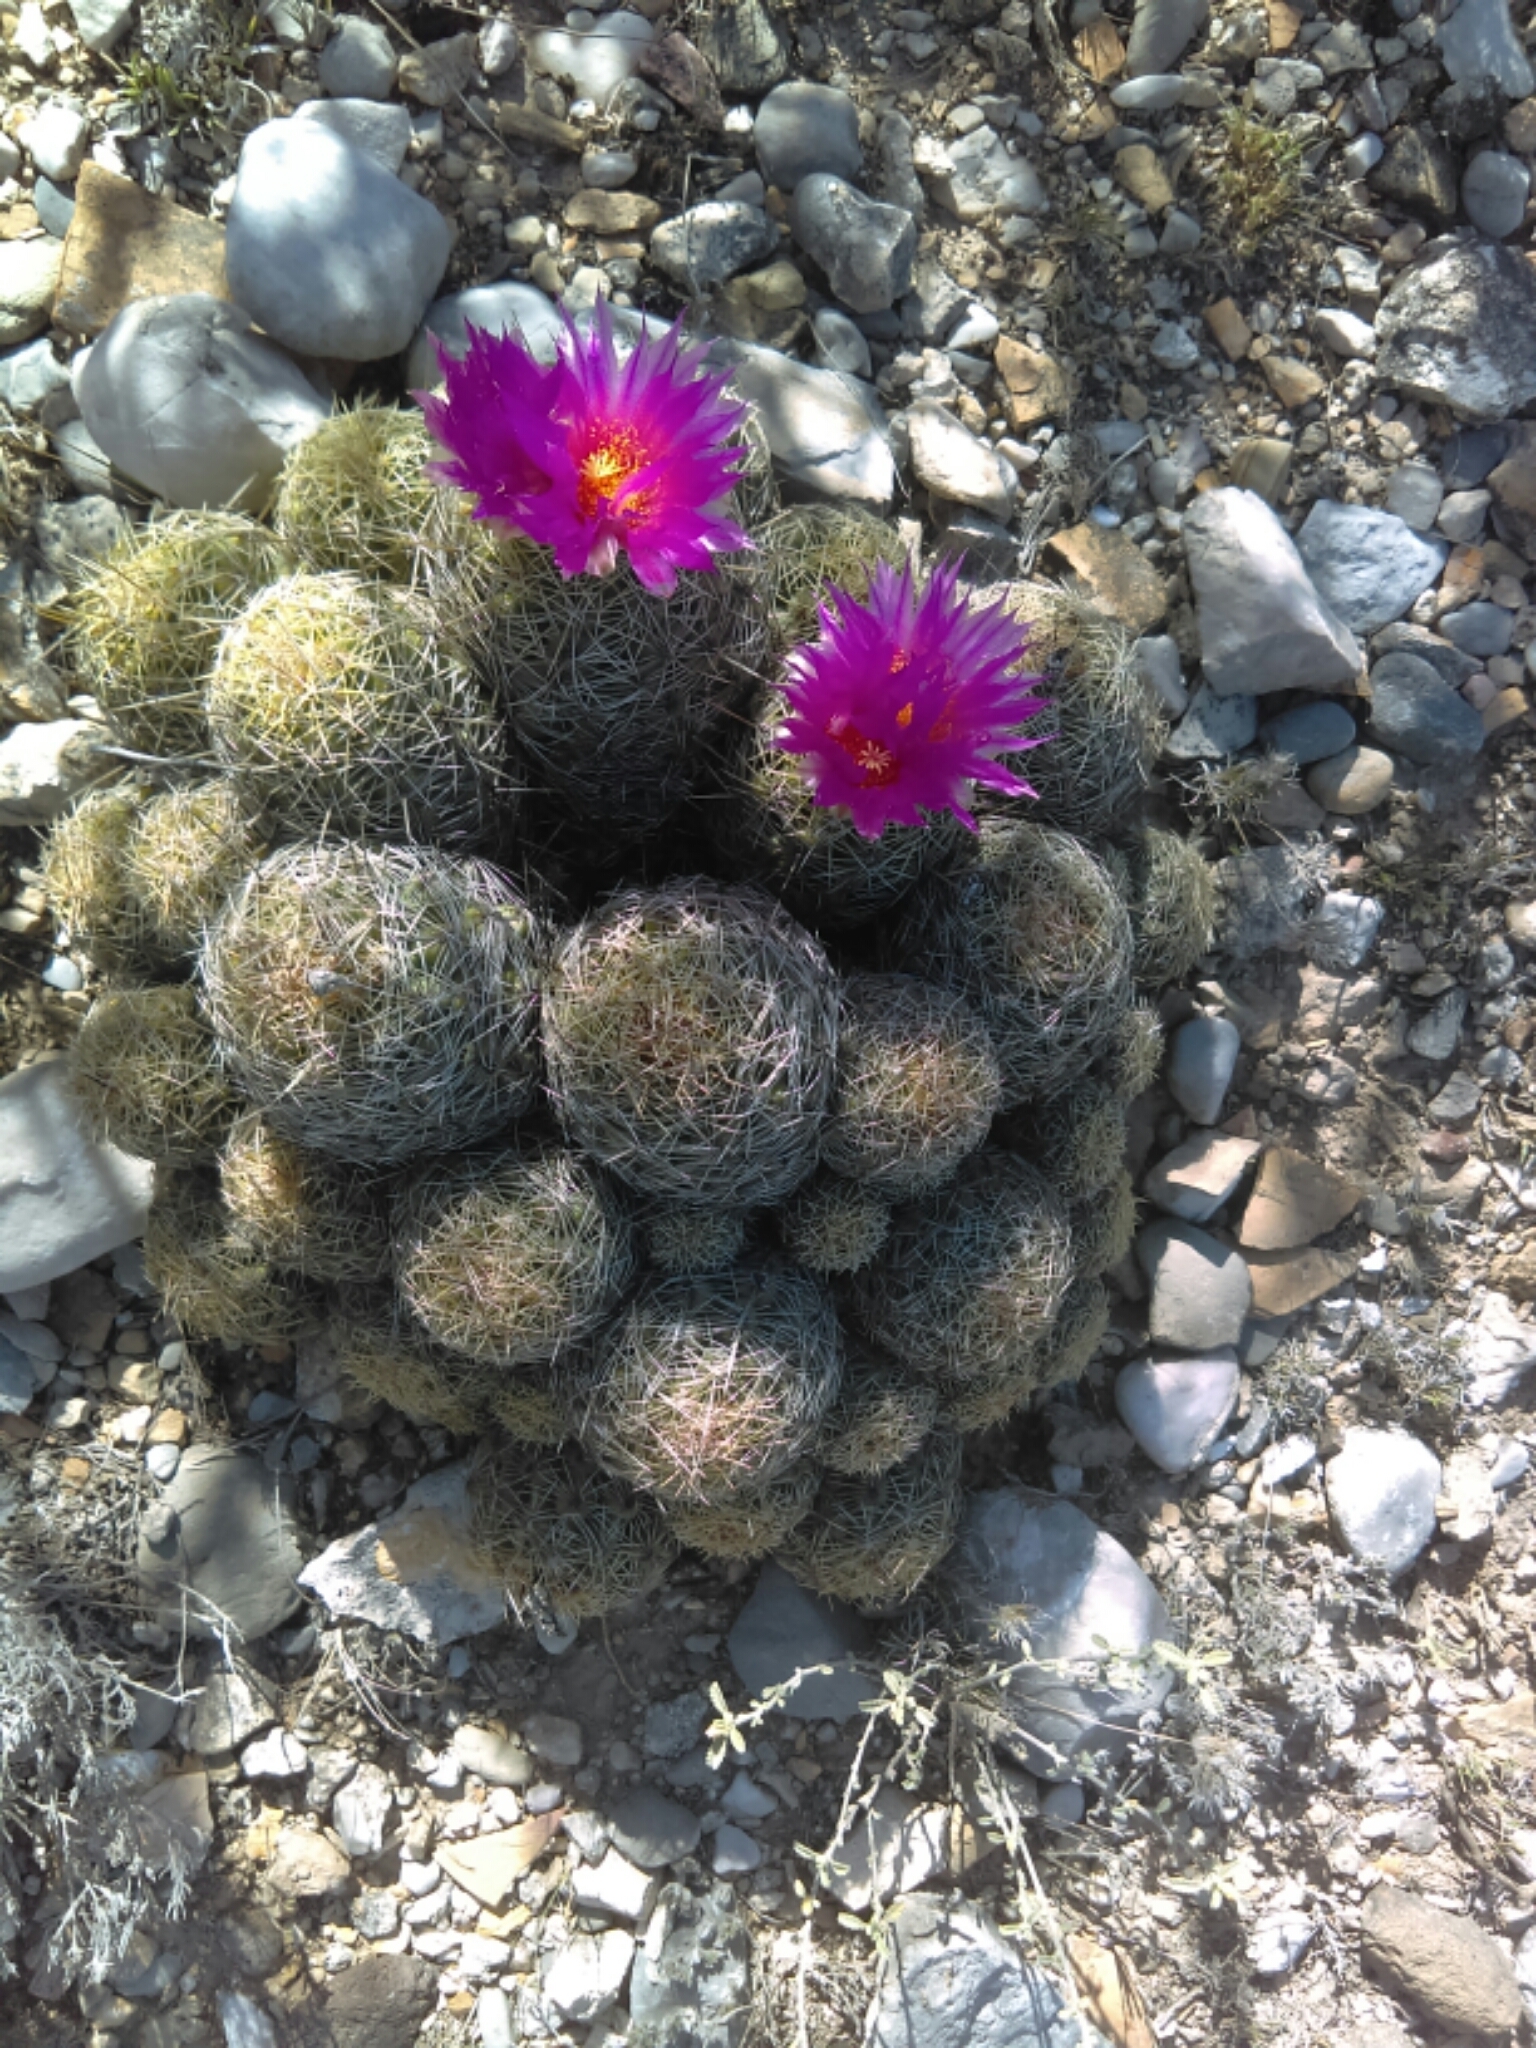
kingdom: Plantae
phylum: Tracheophyta
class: Magnoliopsida
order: Caryophyllales
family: Cactaceae
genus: Thelocactus
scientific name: Thelocactus leucacanthus
